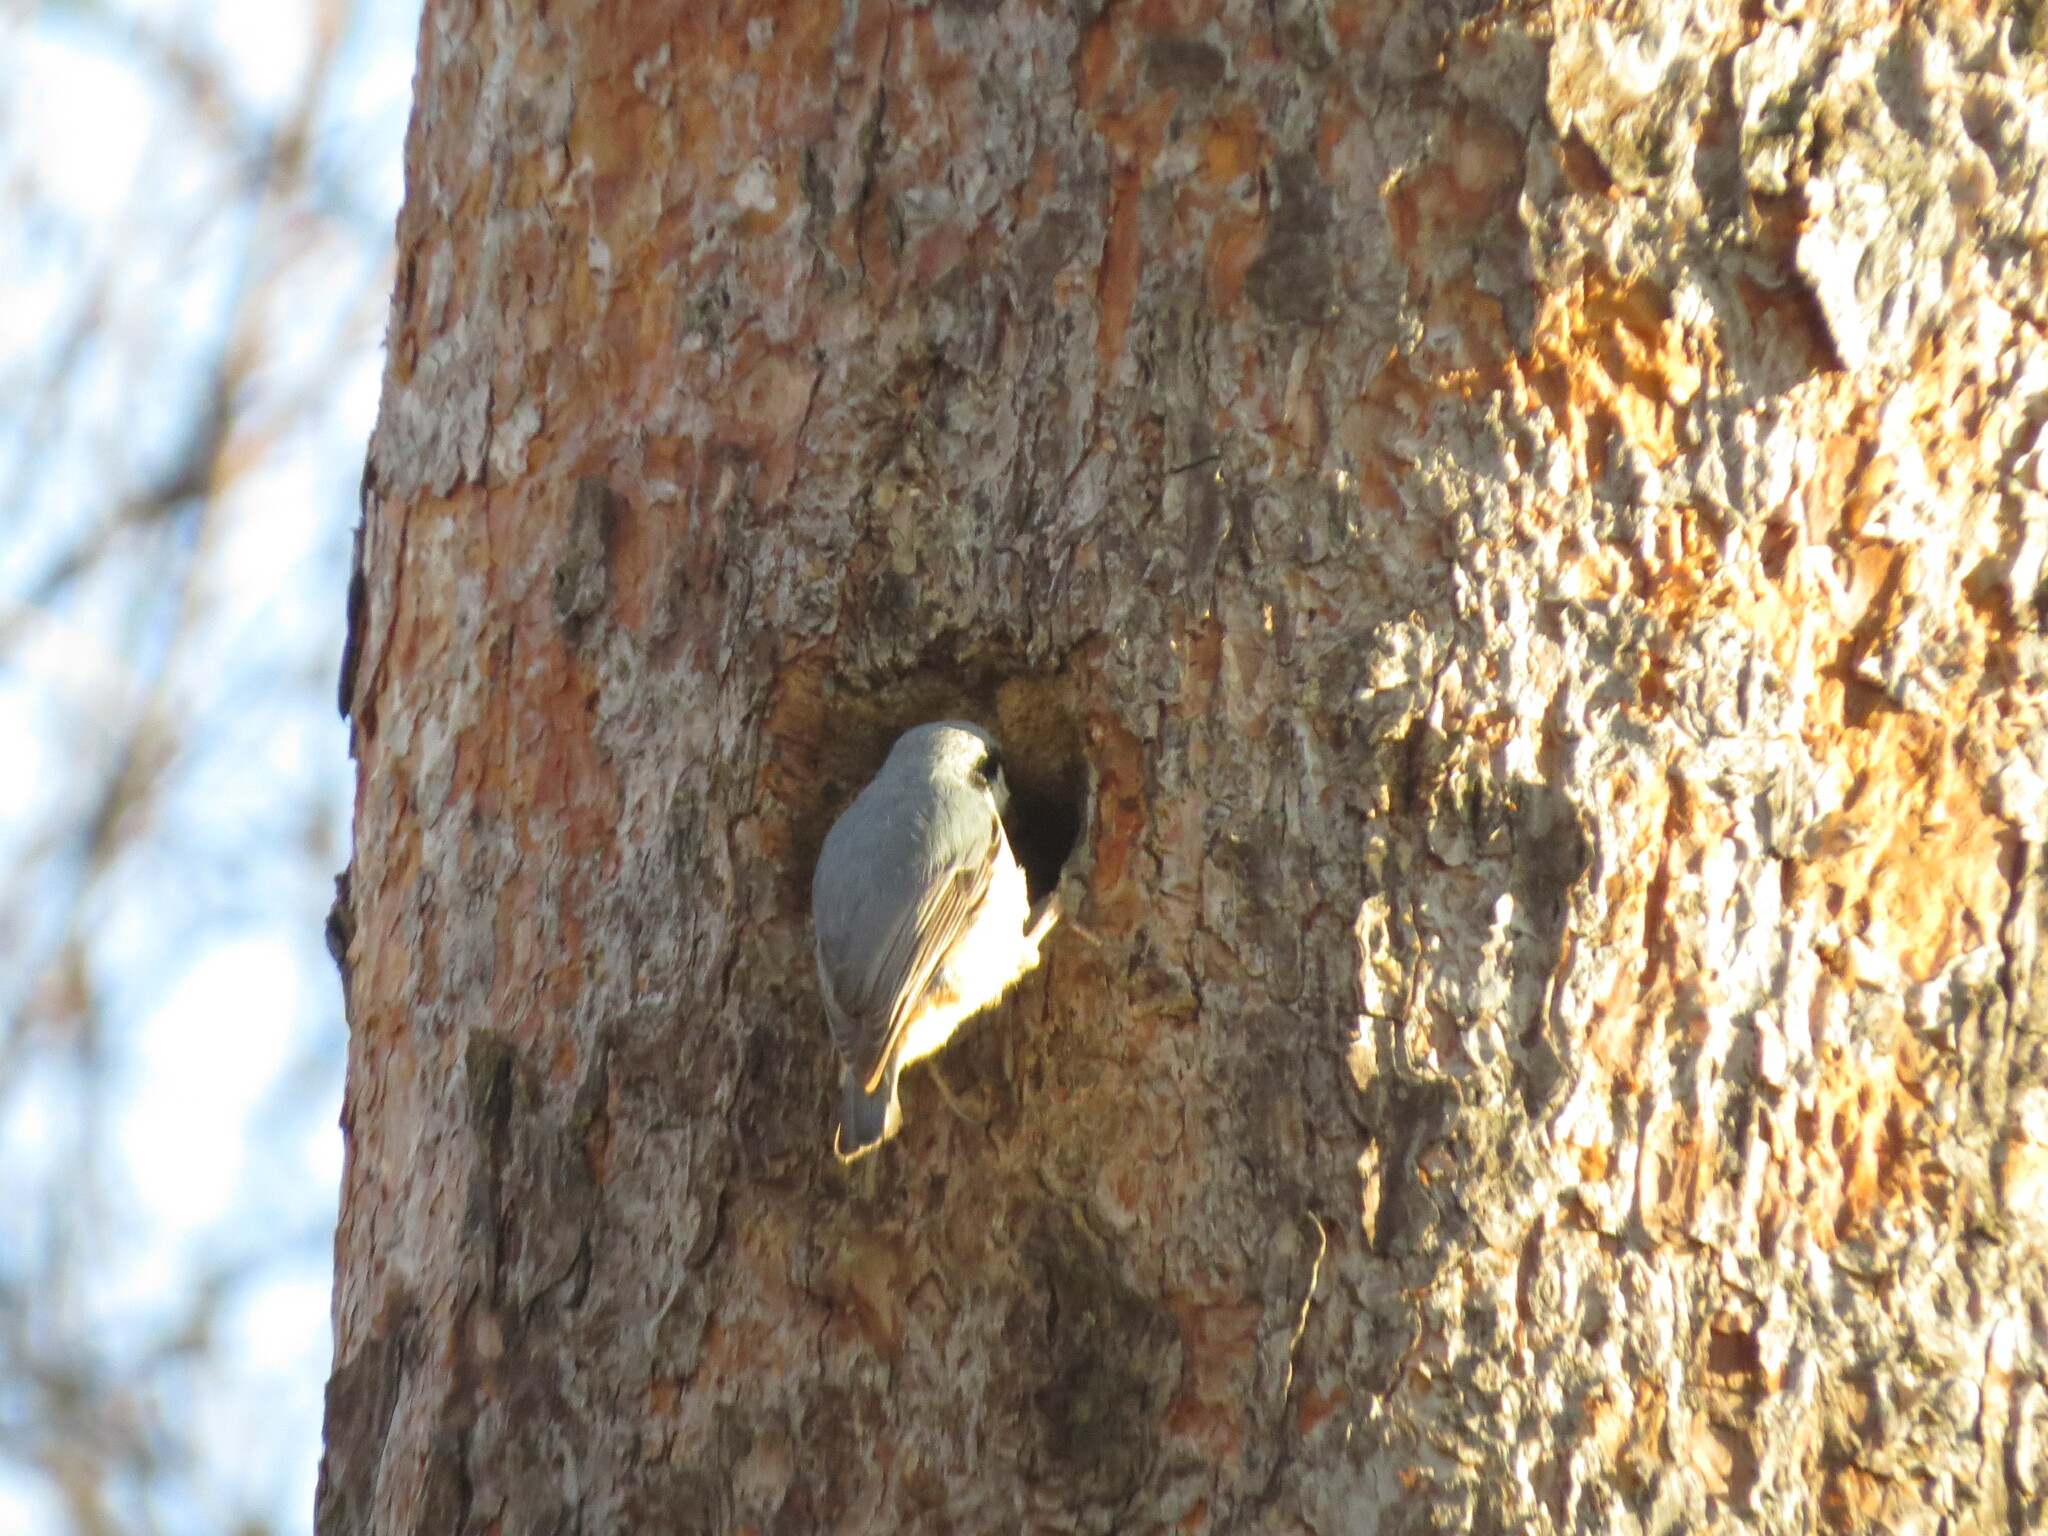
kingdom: Animalia
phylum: Chordata
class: Aves
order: Passeriformes
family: Sittidae
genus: Sitta
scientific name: Sitta europaea
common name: Eurasian nuthatch
